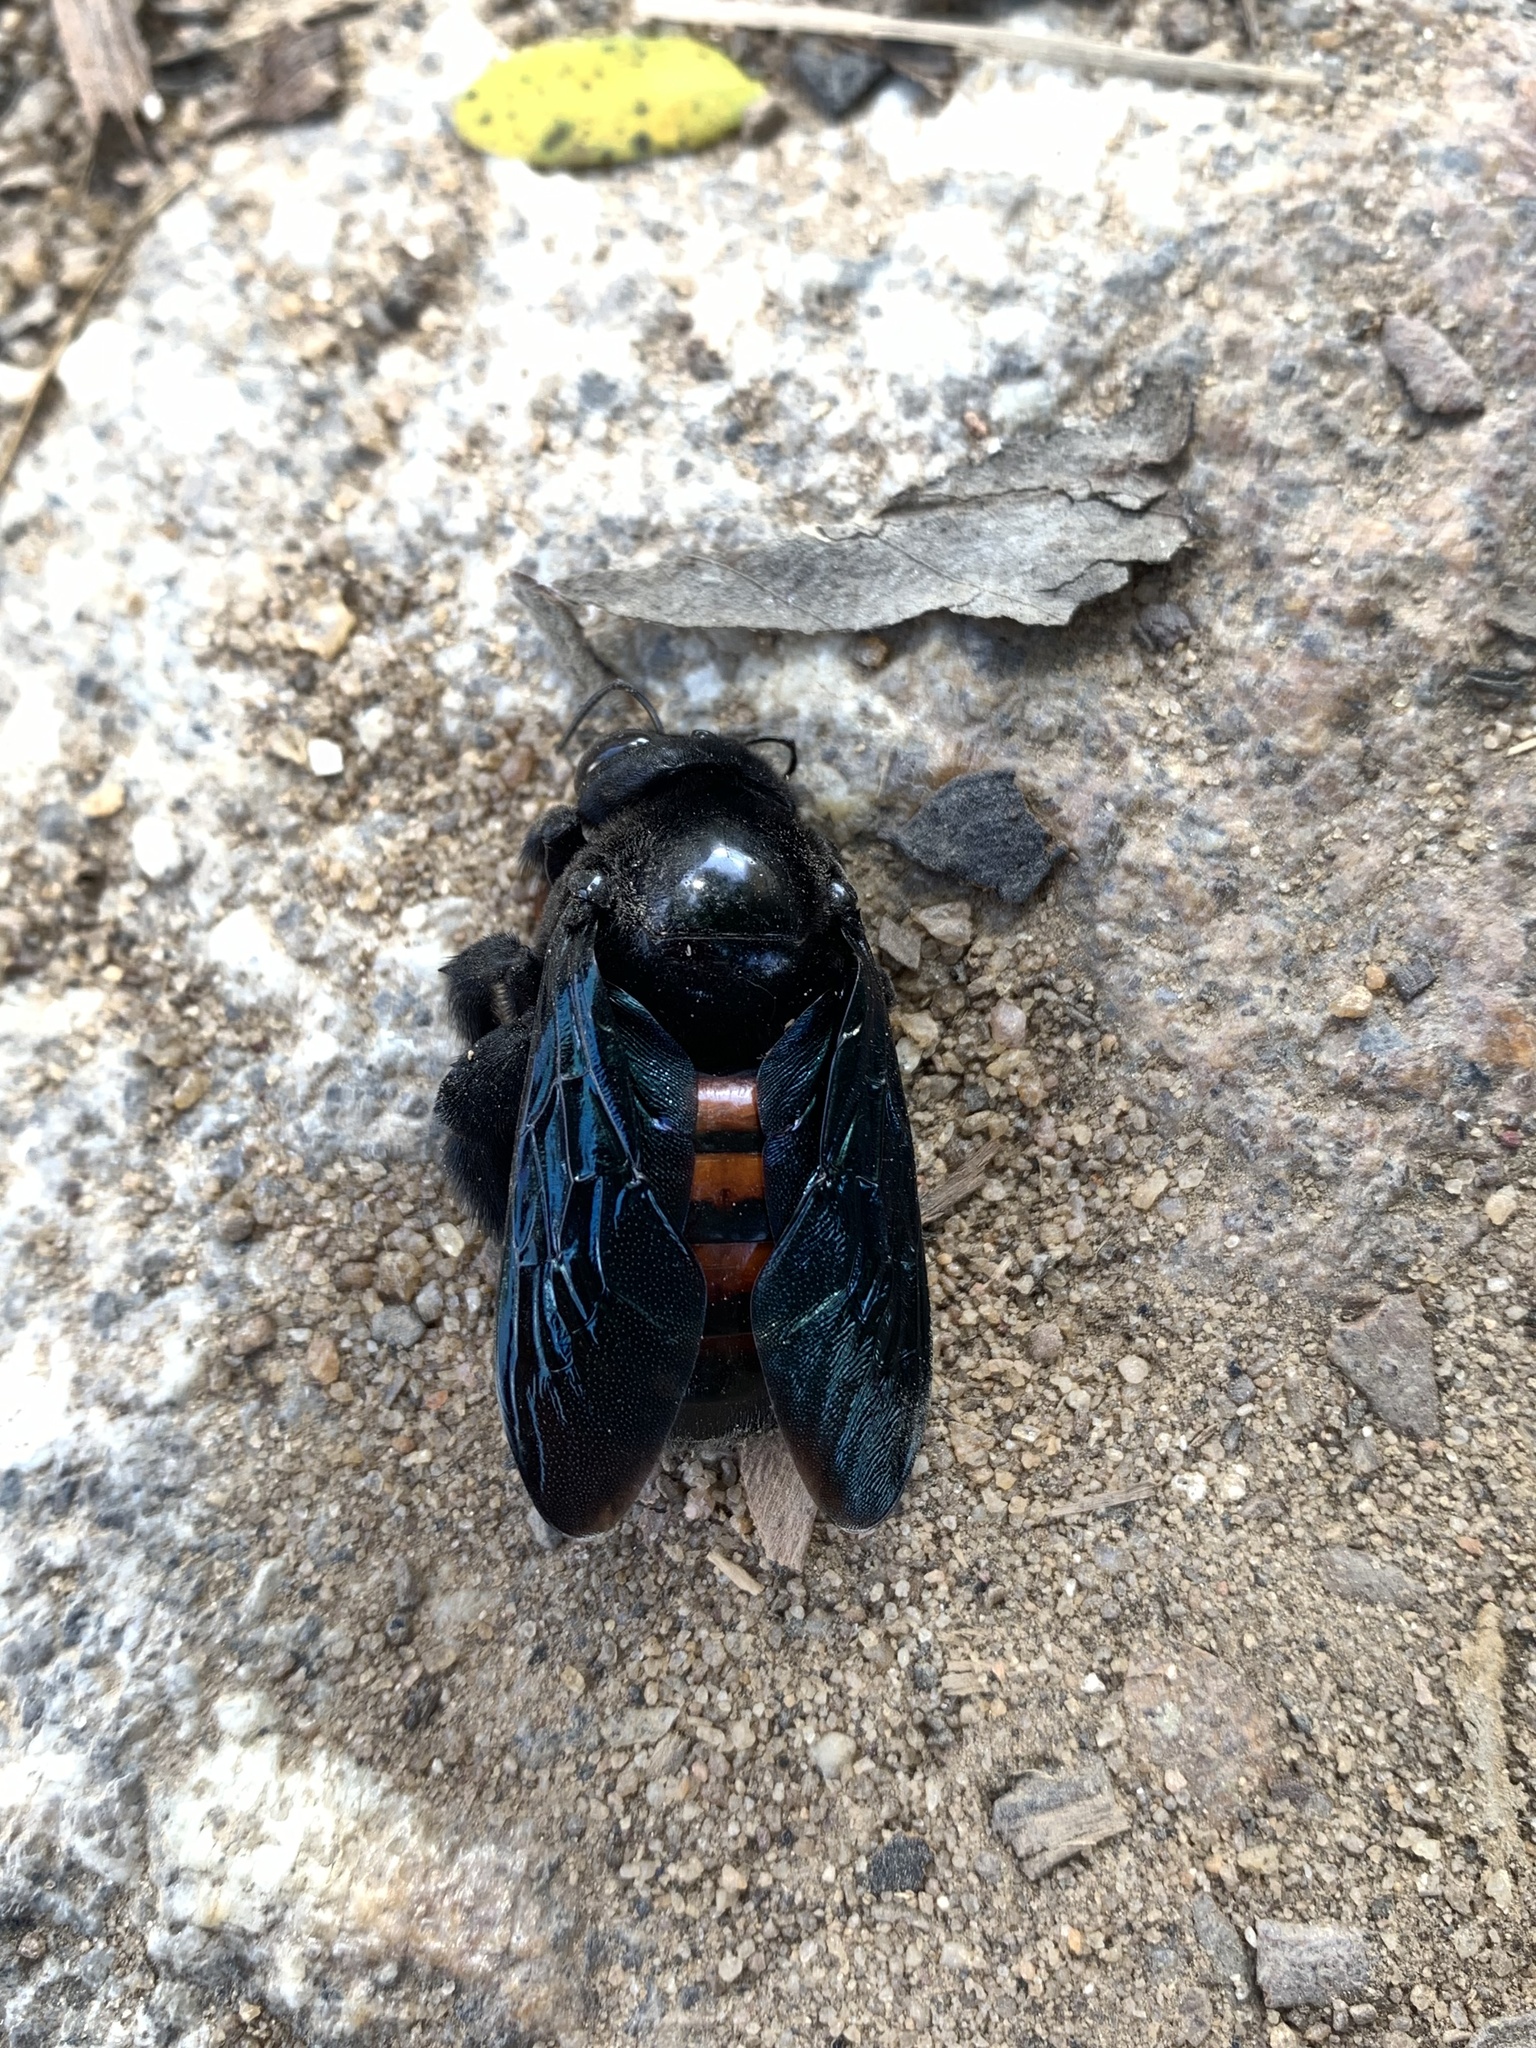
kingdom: Animalia
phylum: Arthropoda
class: Insecta
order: Hymenoptera
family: Apidae
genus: Xylocopa
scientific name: Xylocopa frontalis
